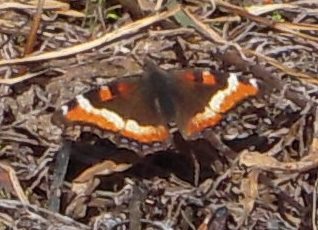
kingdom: Animalia
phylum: Arthropoda
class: Insecta
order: Lepidoptera
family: Nymphalidae
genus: Aglais
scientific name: Aglais milberti
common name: Milbert's tortoiseshell
